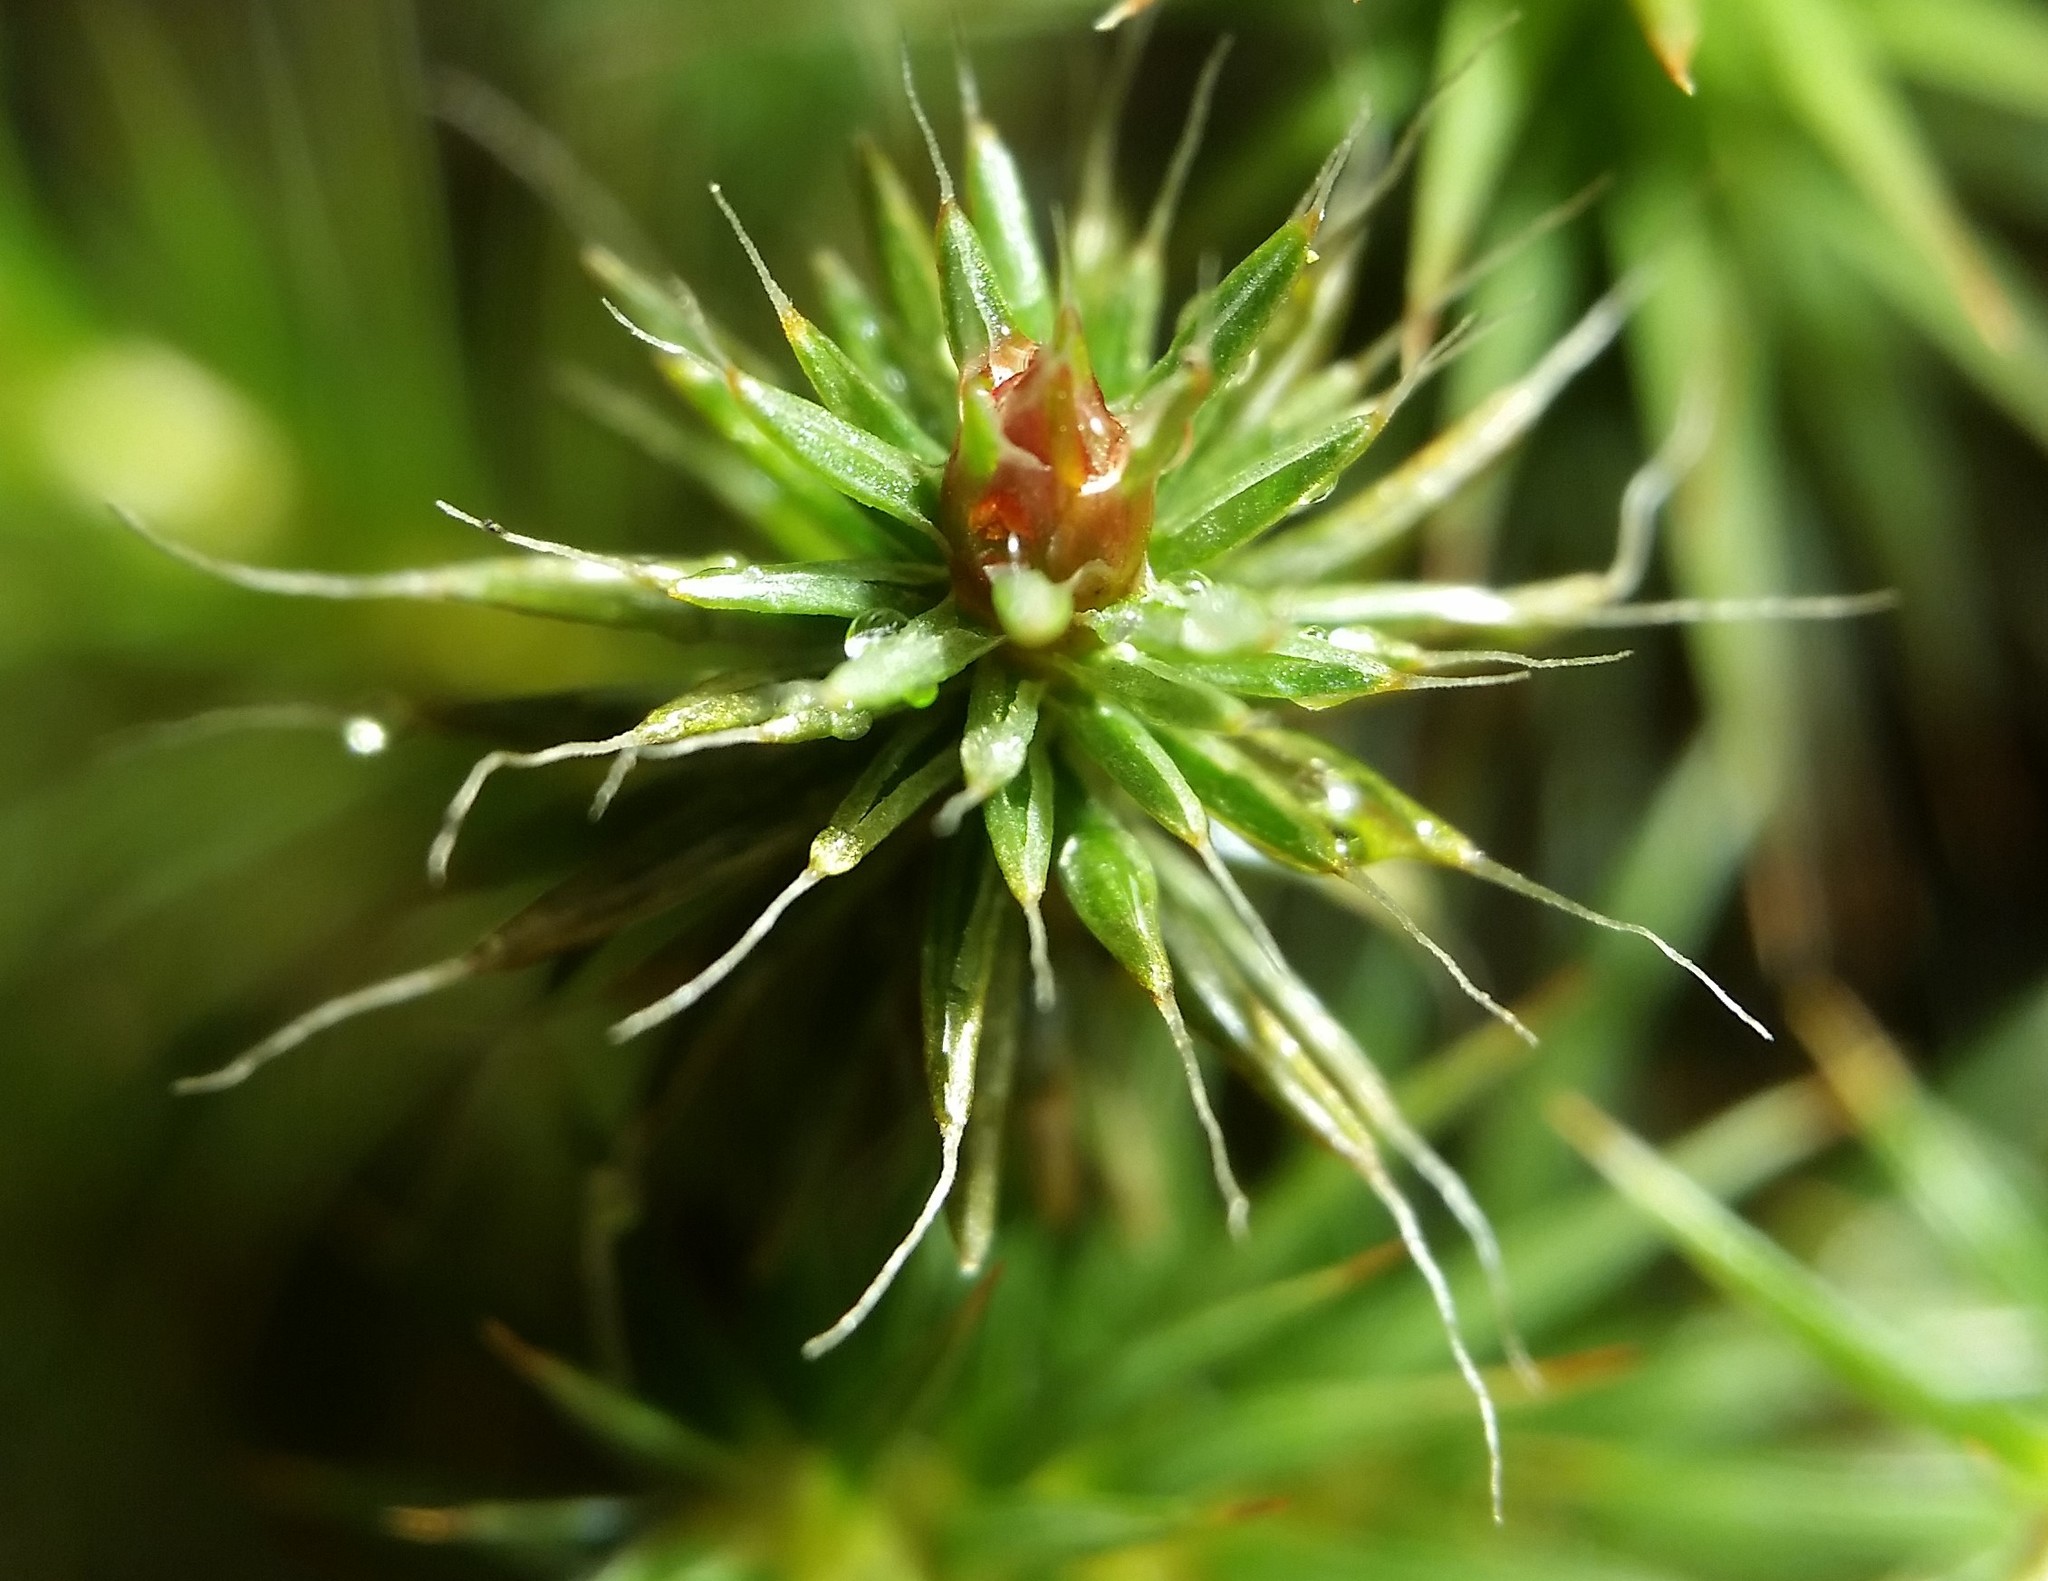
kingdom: Plantae
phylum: Bryophyta
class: Polytrichopsida
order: Polytrichales
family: Polytrichaceae
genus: Polytrichum
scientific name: Polytrichum piliferum
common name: Bristly haircap
